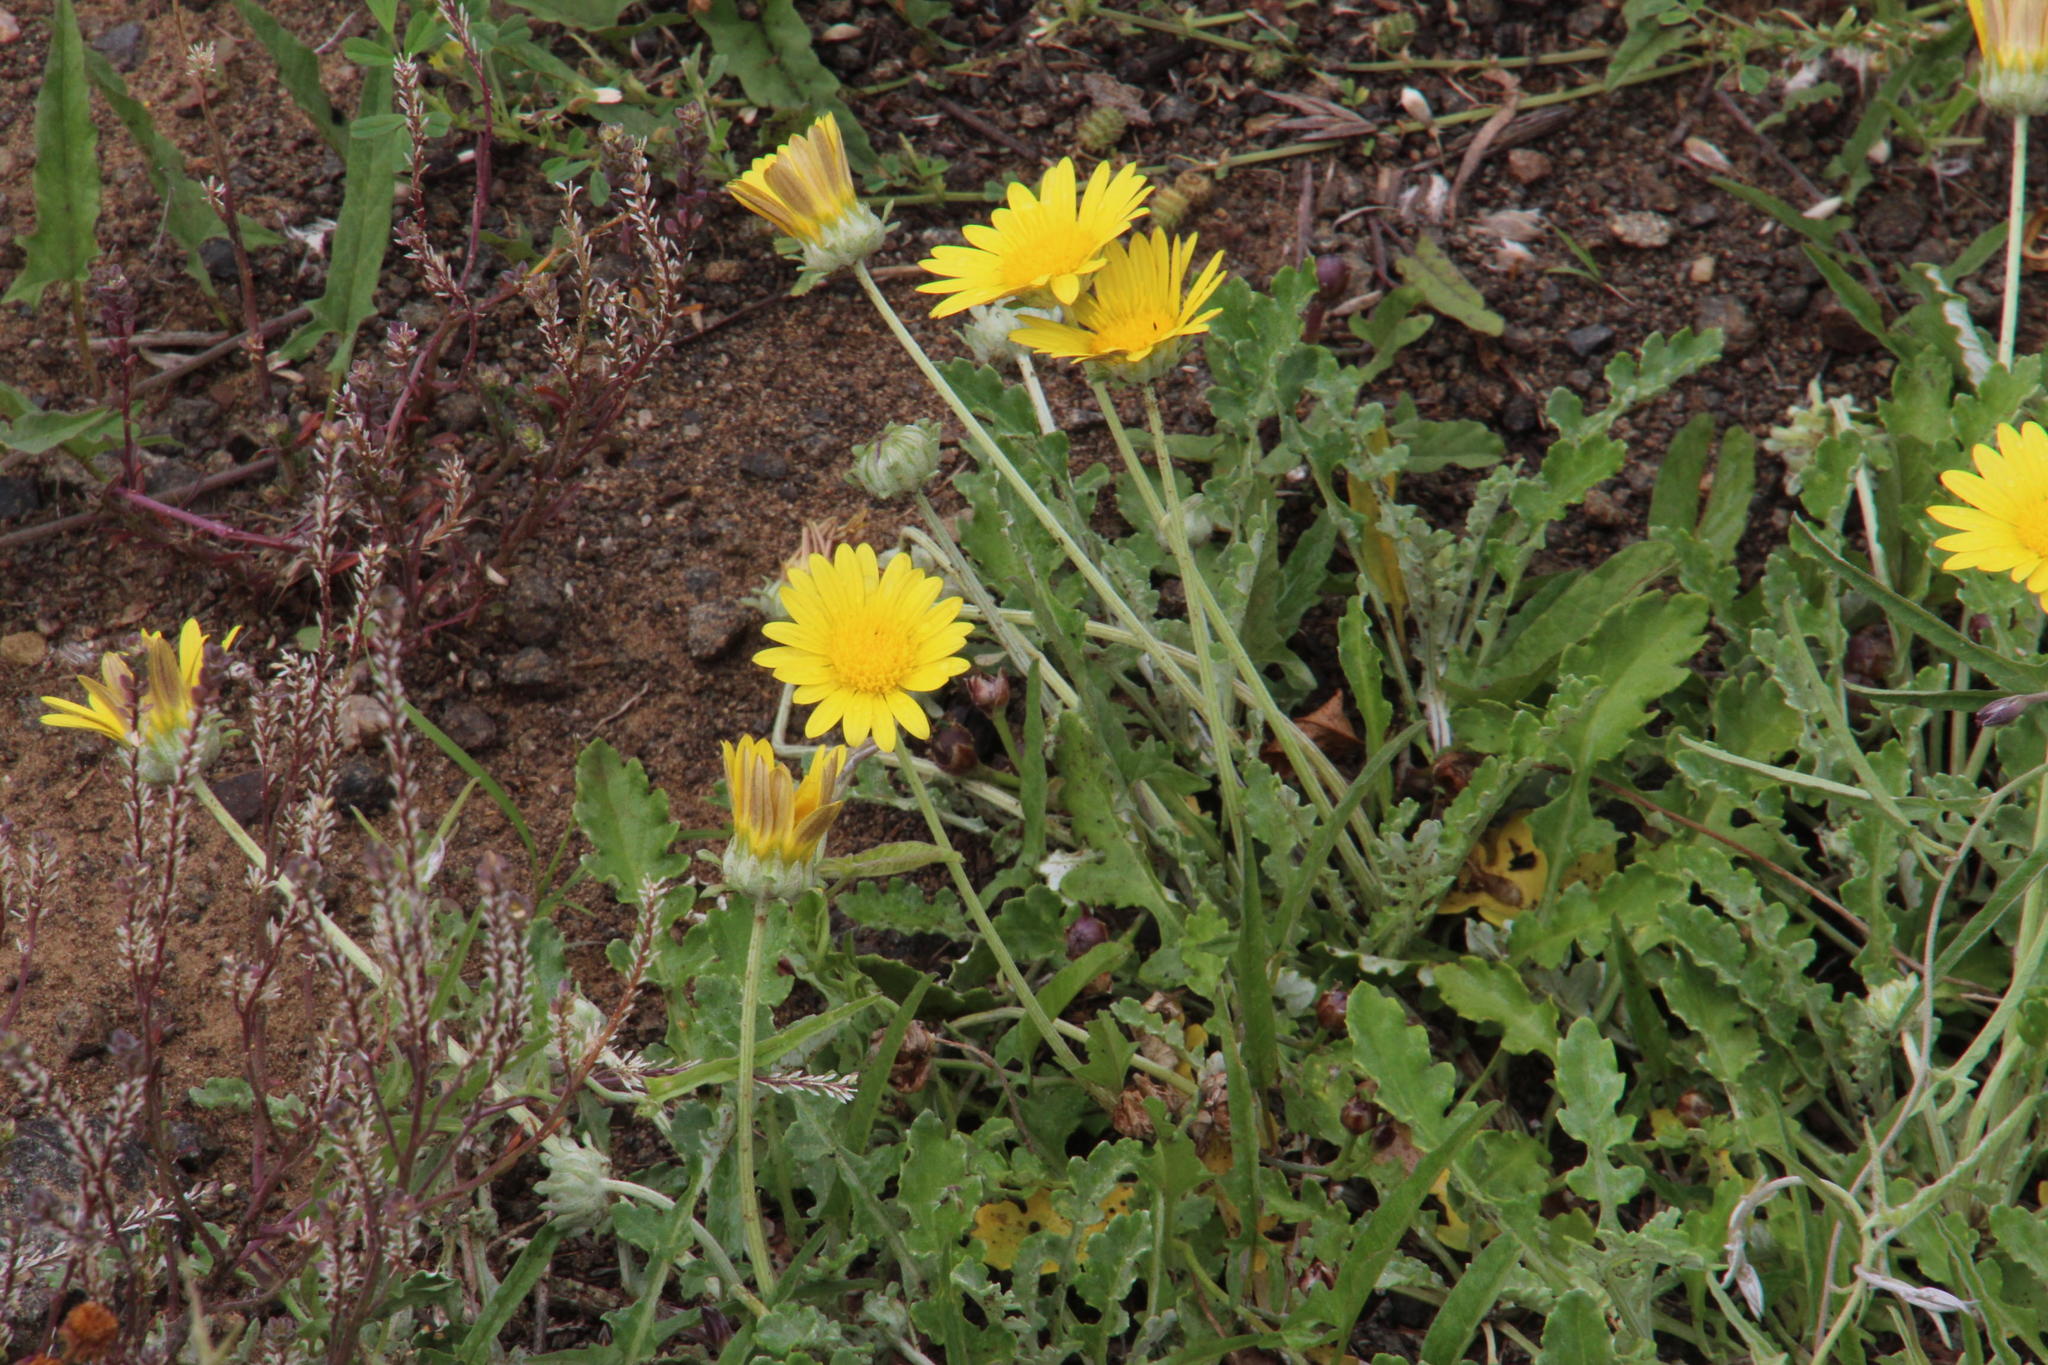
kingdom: Plantae
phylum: Tracheophyta
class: Magnoliopsida
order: Asterales
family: Asteraceae
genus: Arctotis
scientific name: Arctotis arctotoides
